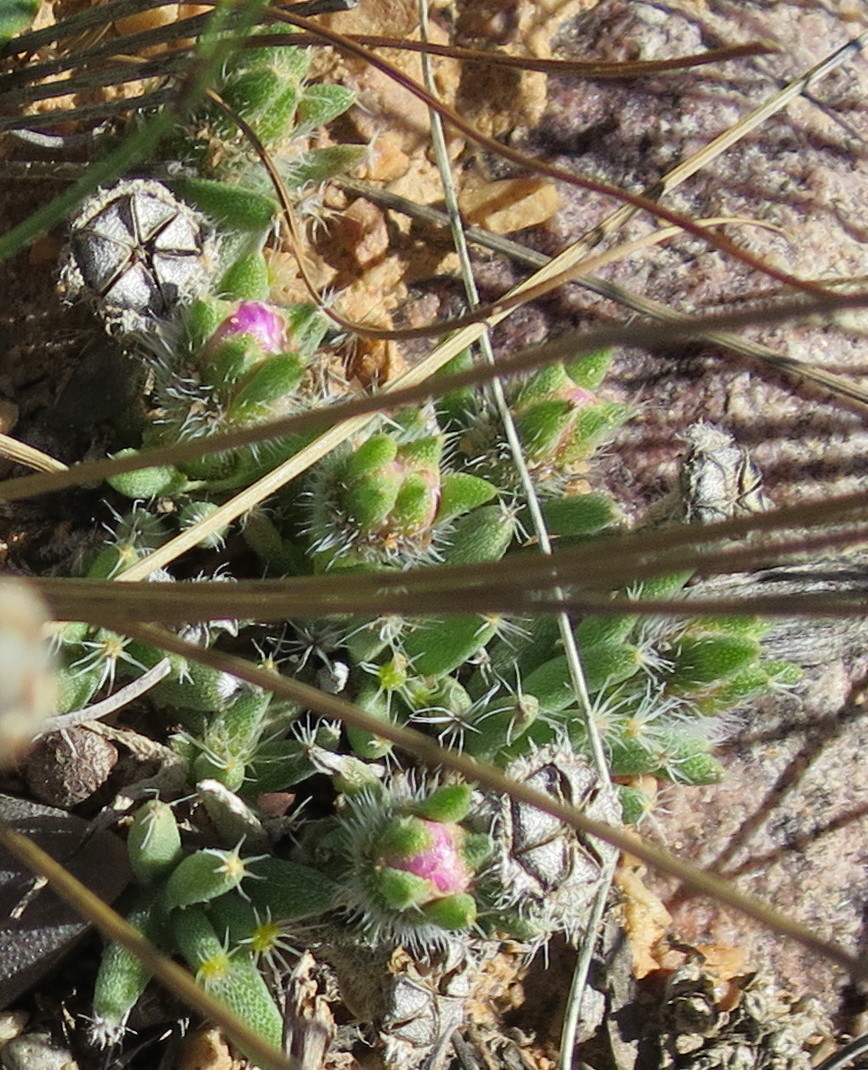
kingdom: Plantae
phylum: Tracheophyta
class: Magnoliopsida
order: Caryophyllales
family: Aizoaceae
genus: Trichodiadema
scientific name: Trichodiadema densum
